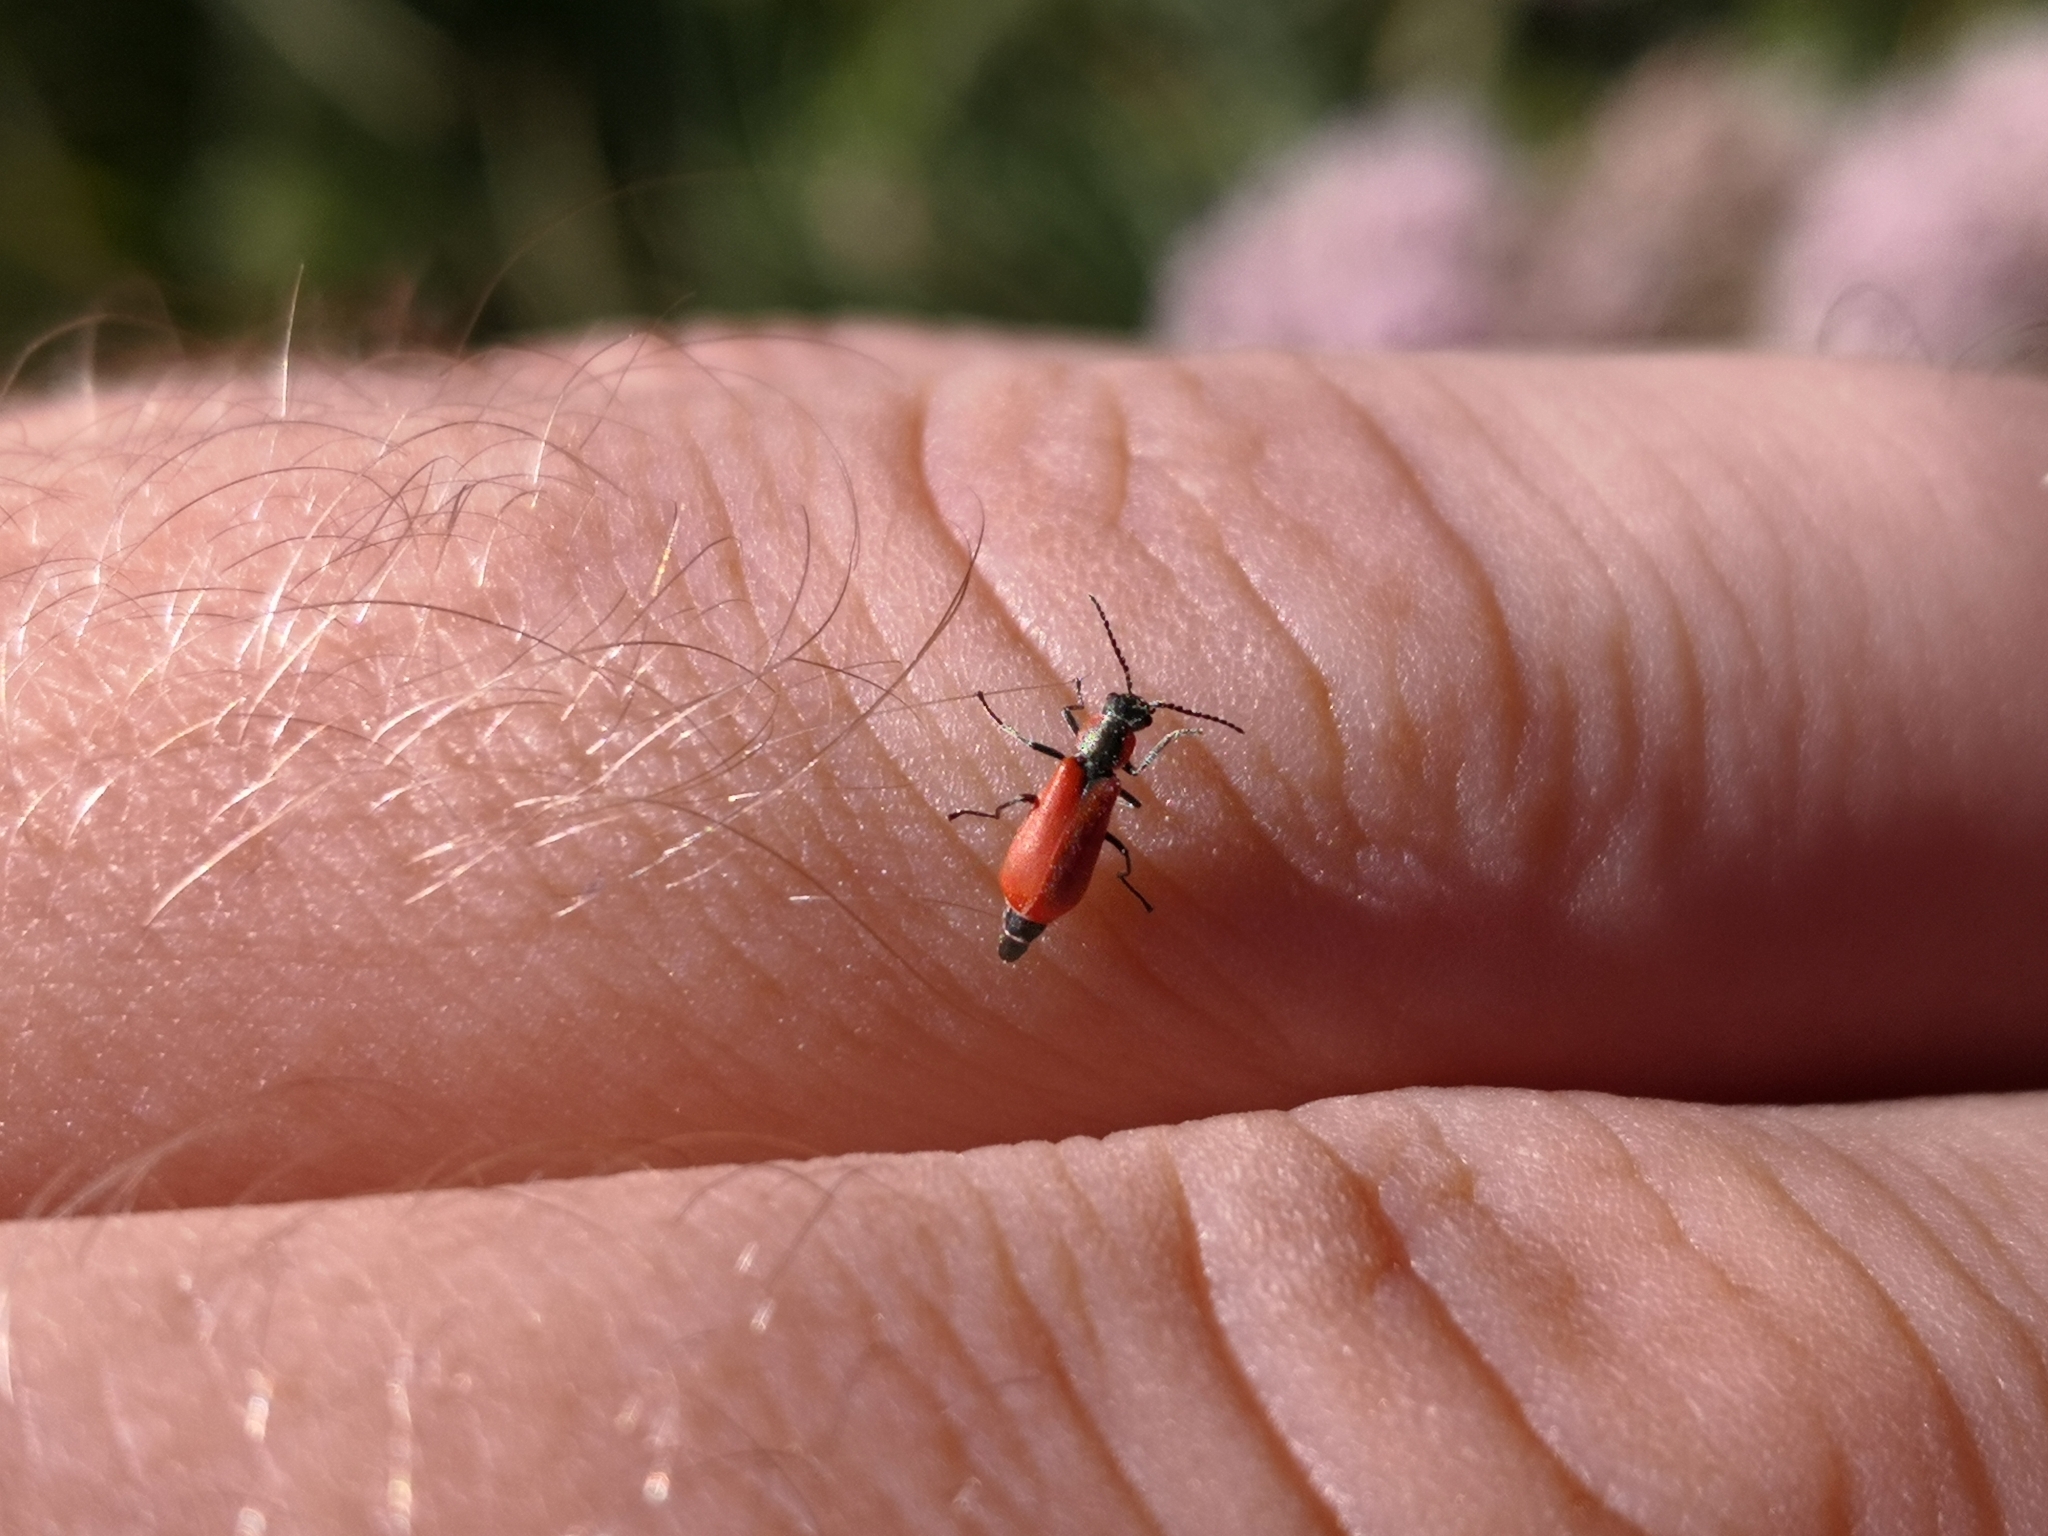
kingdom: Animalia
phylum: Arthropoda
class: Insecta
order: Coleoptera
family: Melyridae
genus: Anthocomus
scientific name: Anthocomus rufus
